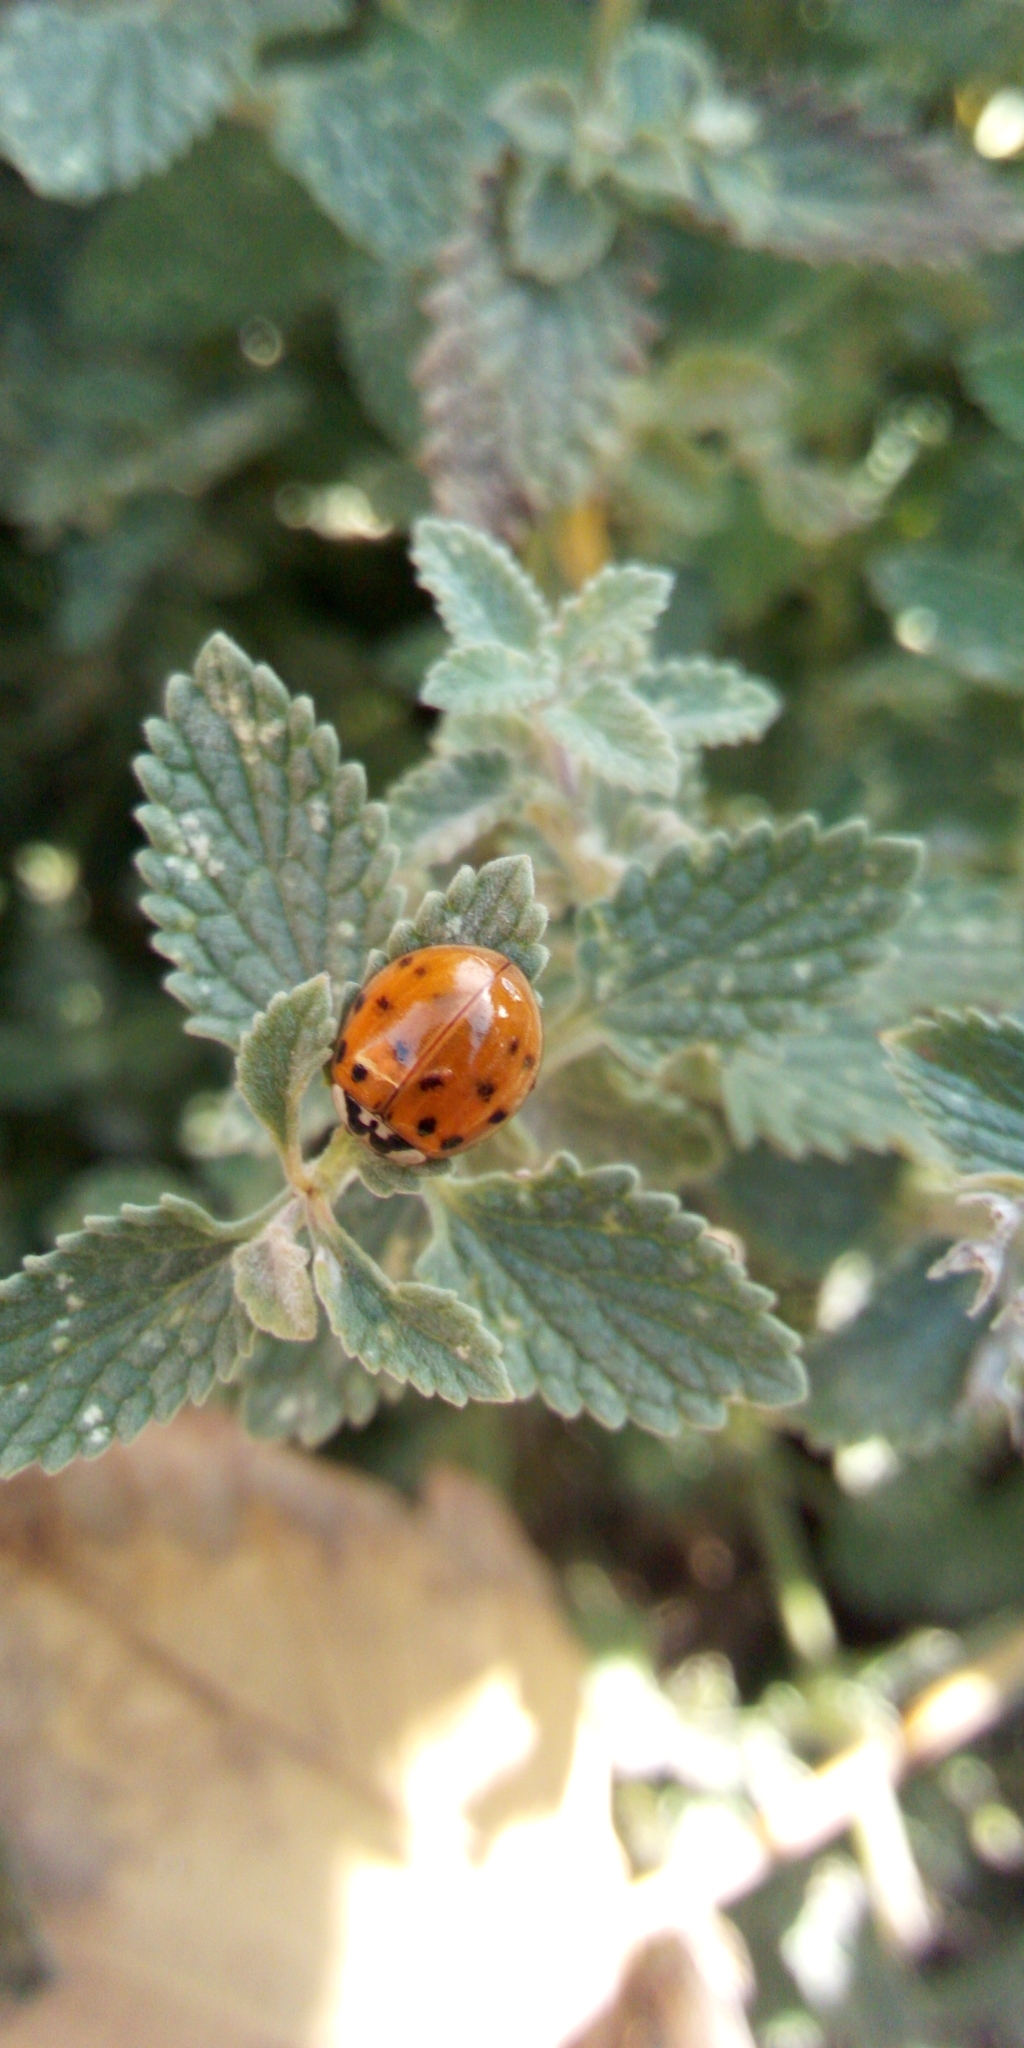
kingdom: Animalia
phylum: Arthropoda
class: Insecta
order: Coleoptera
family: Coccinellidae
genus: Harmonia
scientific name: Harmonia axyridis
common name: Harlequin ladybird
